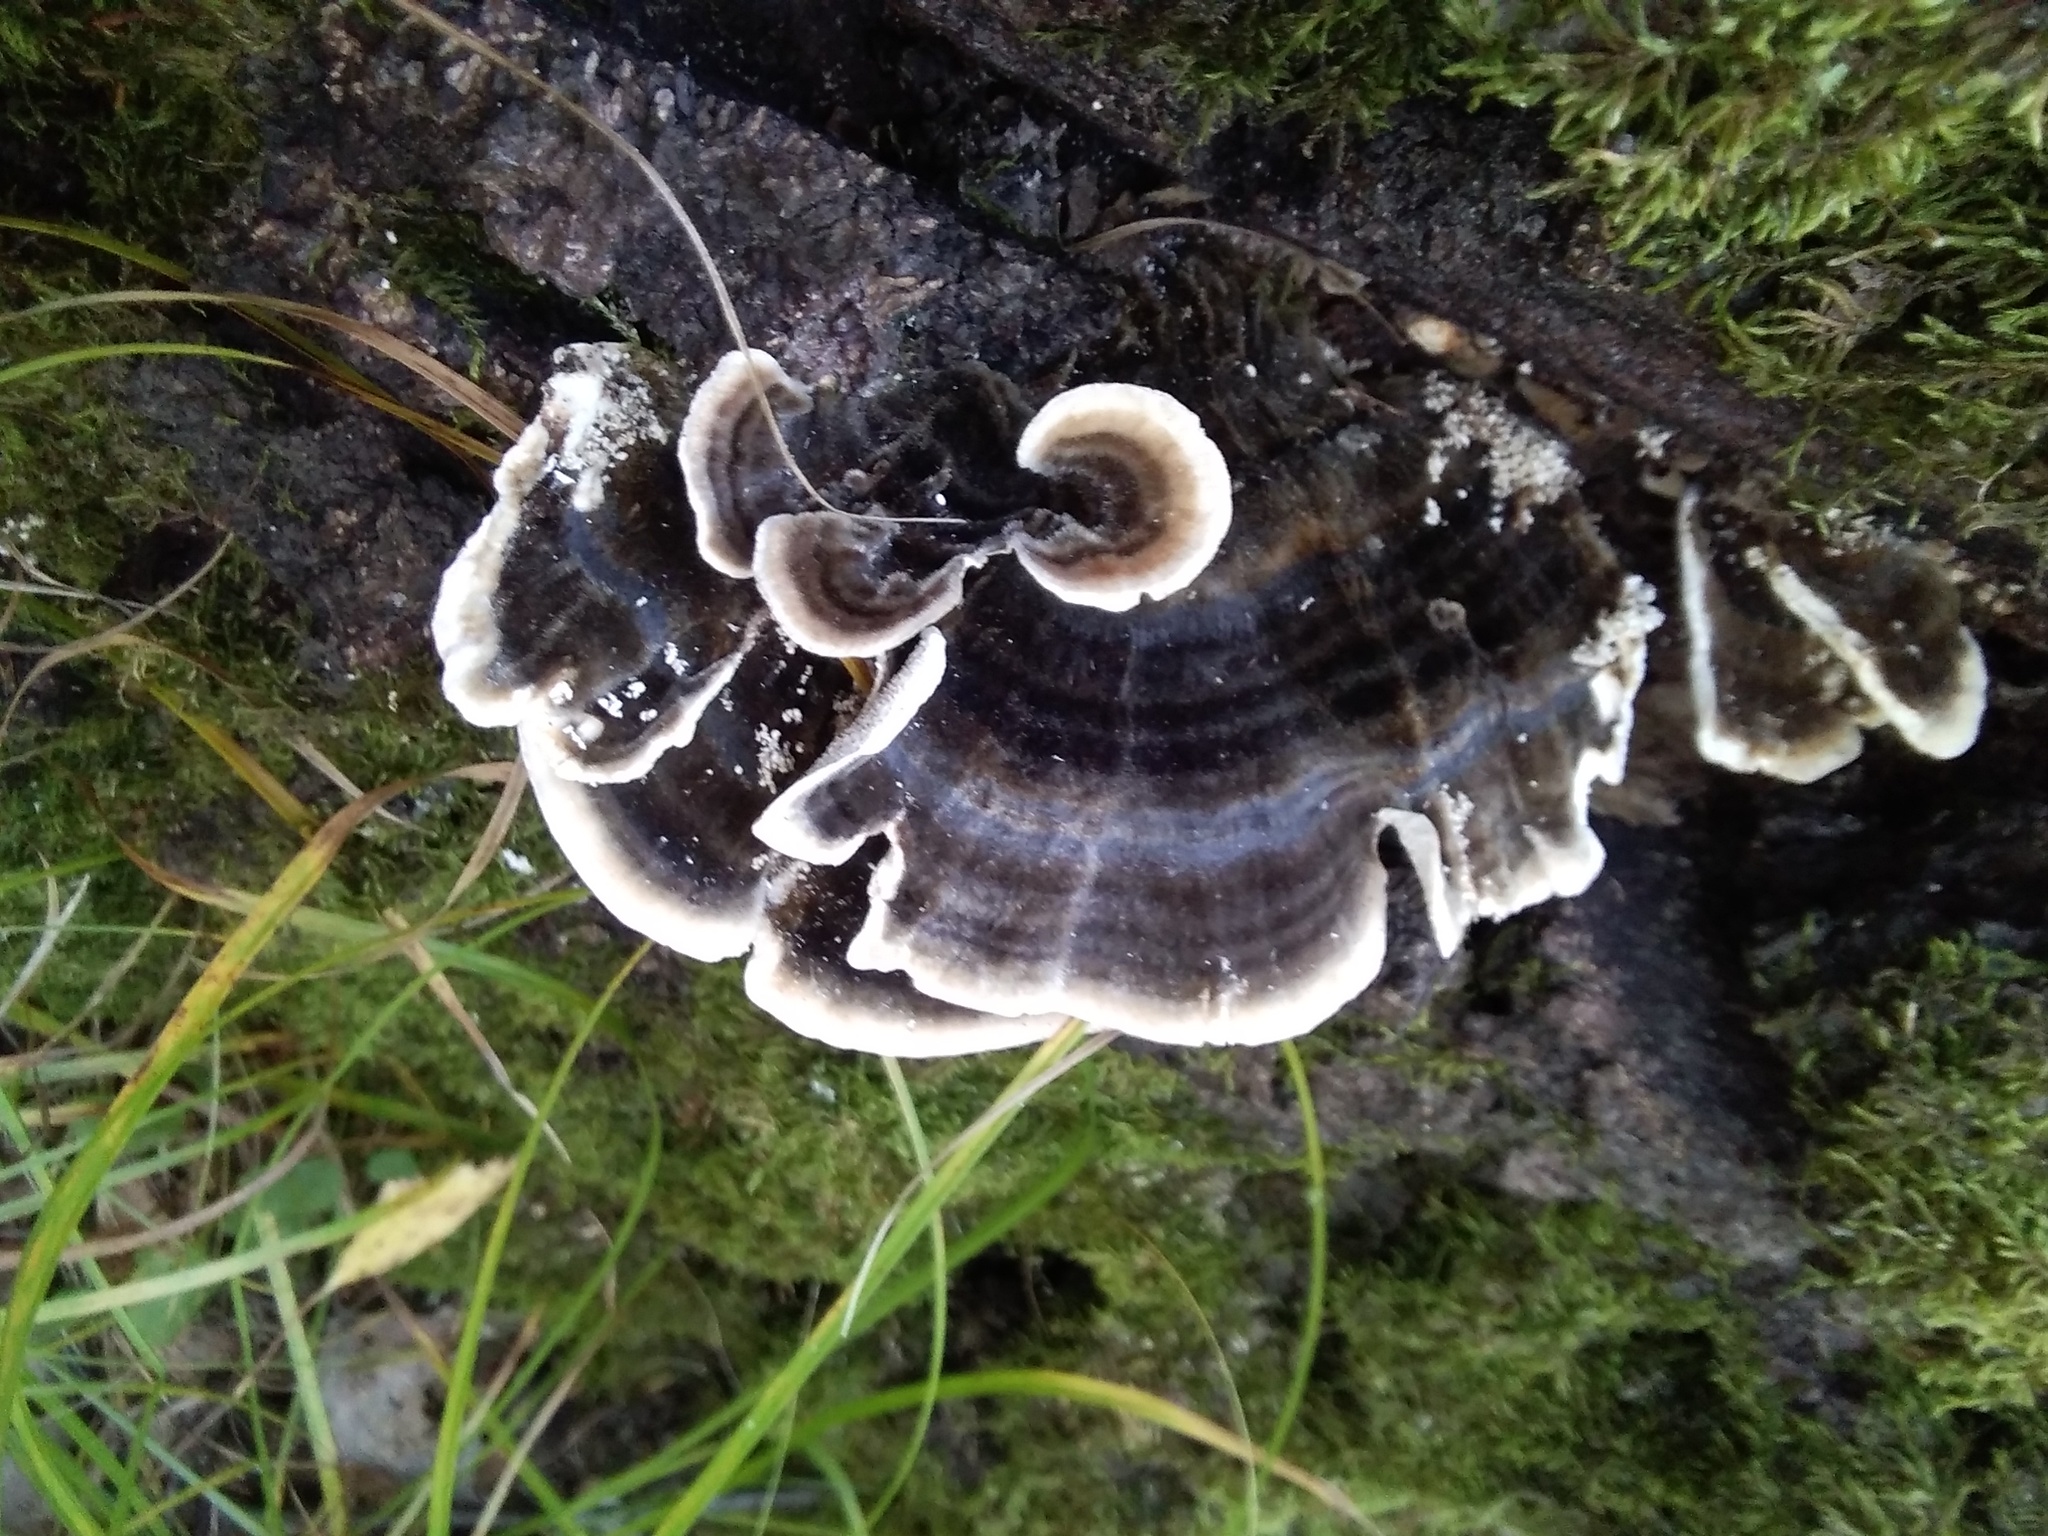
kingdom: Fungi
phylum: Basidiomycota
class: Agaricomycetes
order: Polyporales
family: Polyporaceae
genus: Trametes
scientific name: Trametes versicolor
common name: Turkeytail
